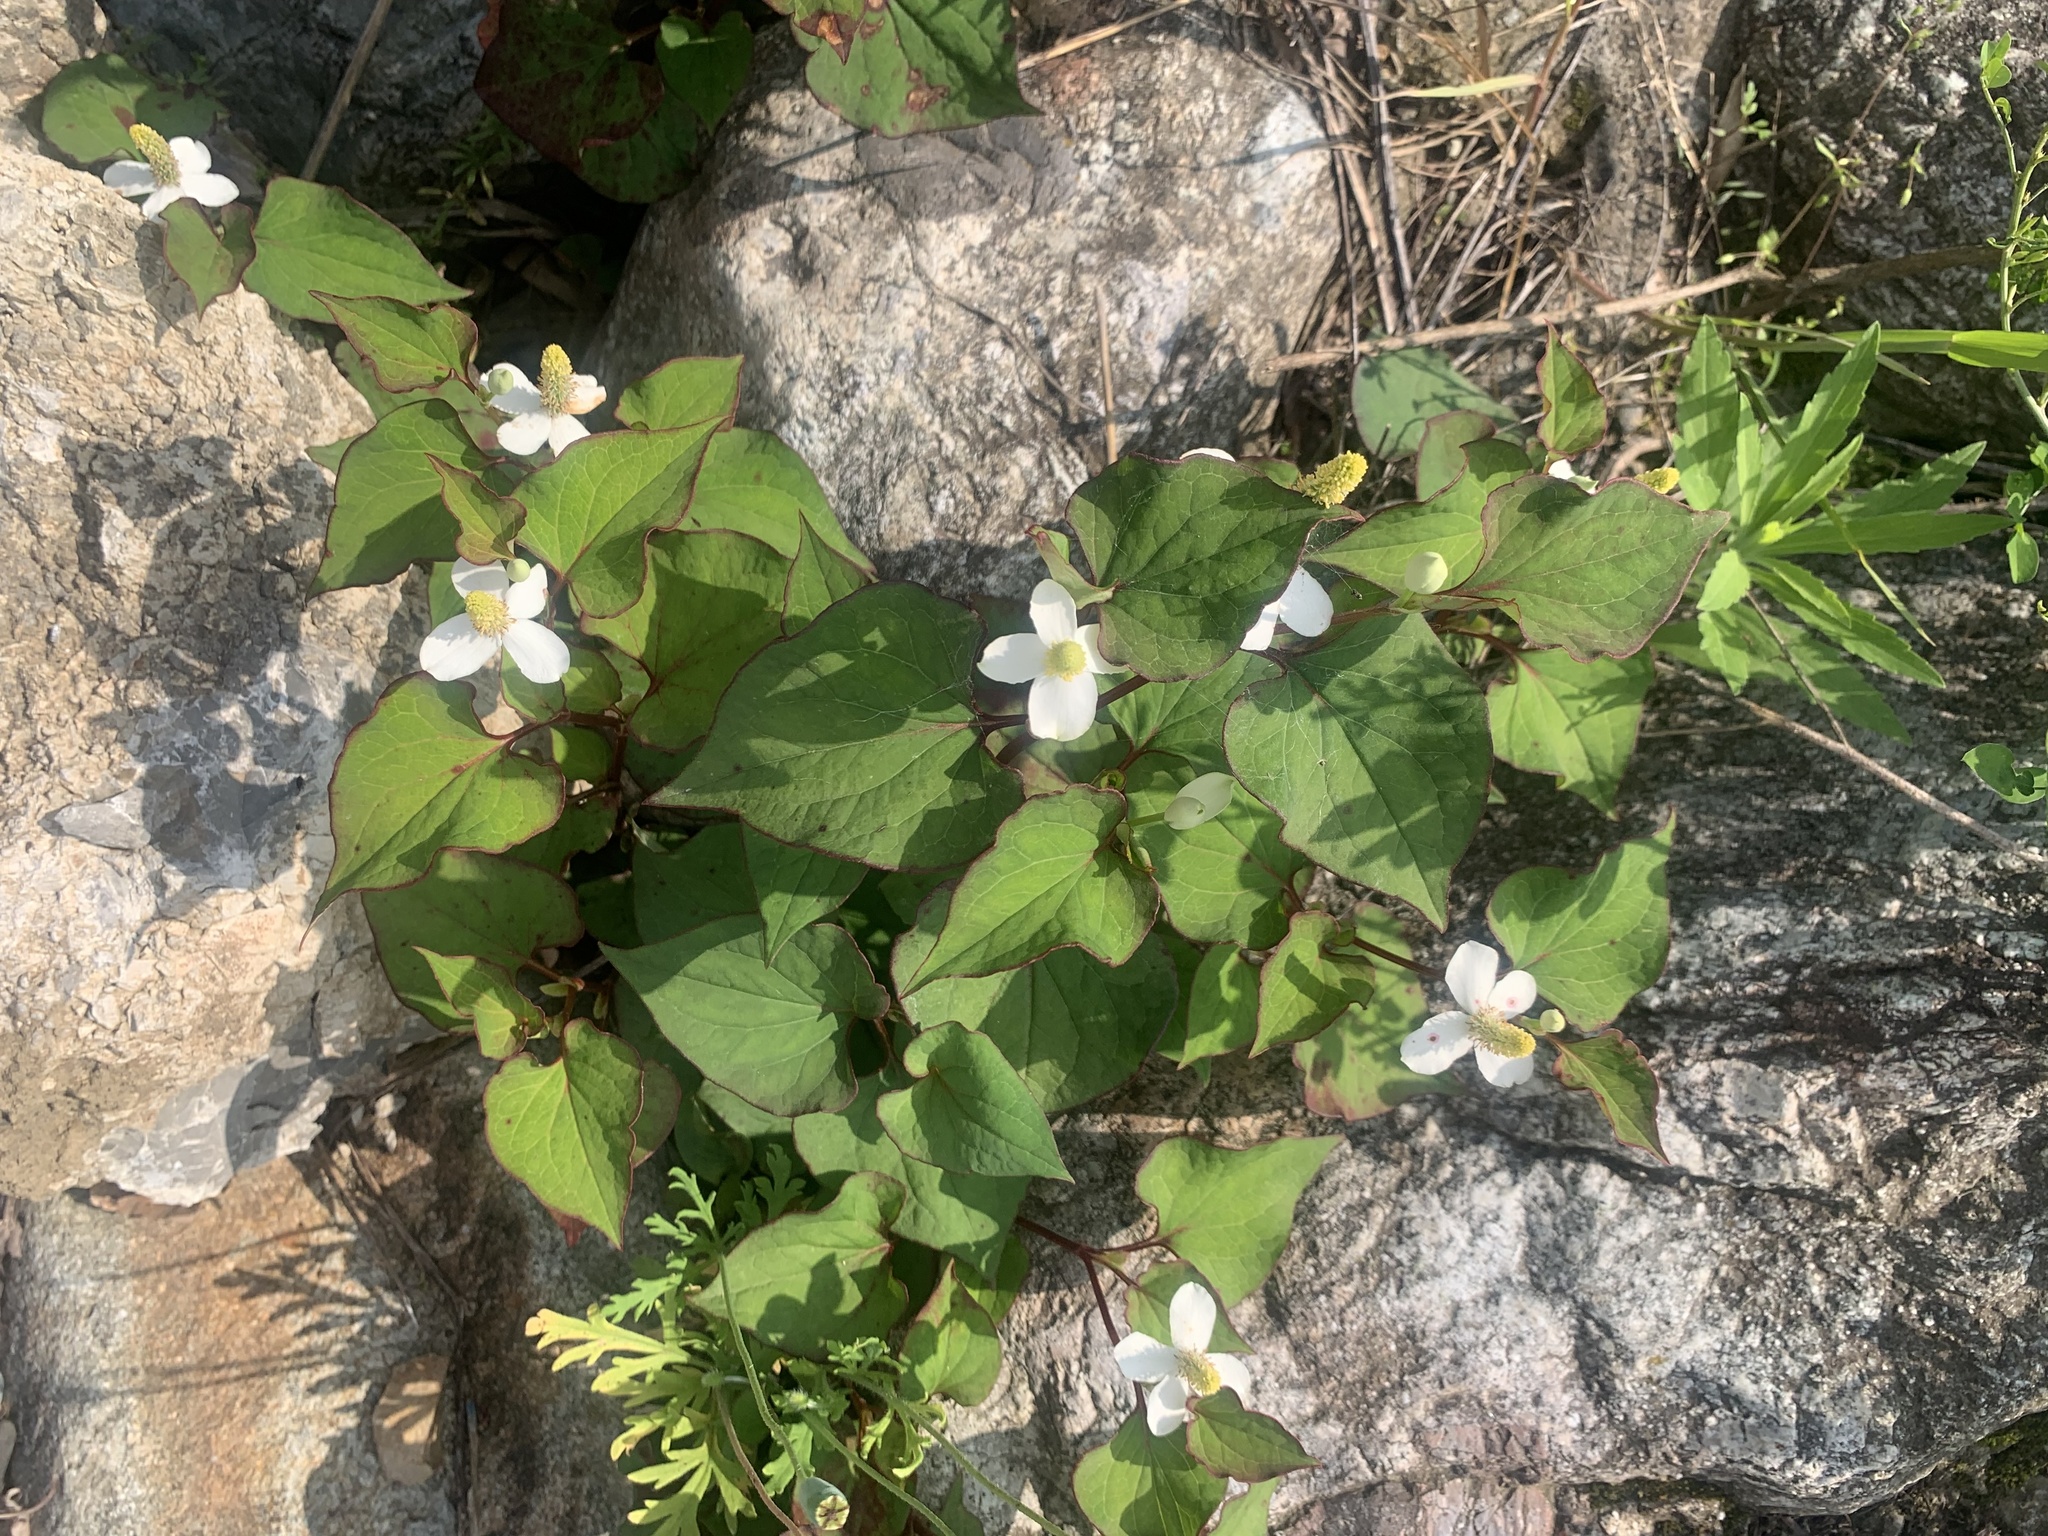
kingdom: Plantae
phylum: Tracheophyta
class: Magnoliopsida
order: Piperales
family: Saururaceae
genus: Houttuynia
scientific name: Houttuynia cordata
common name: Chameleon
